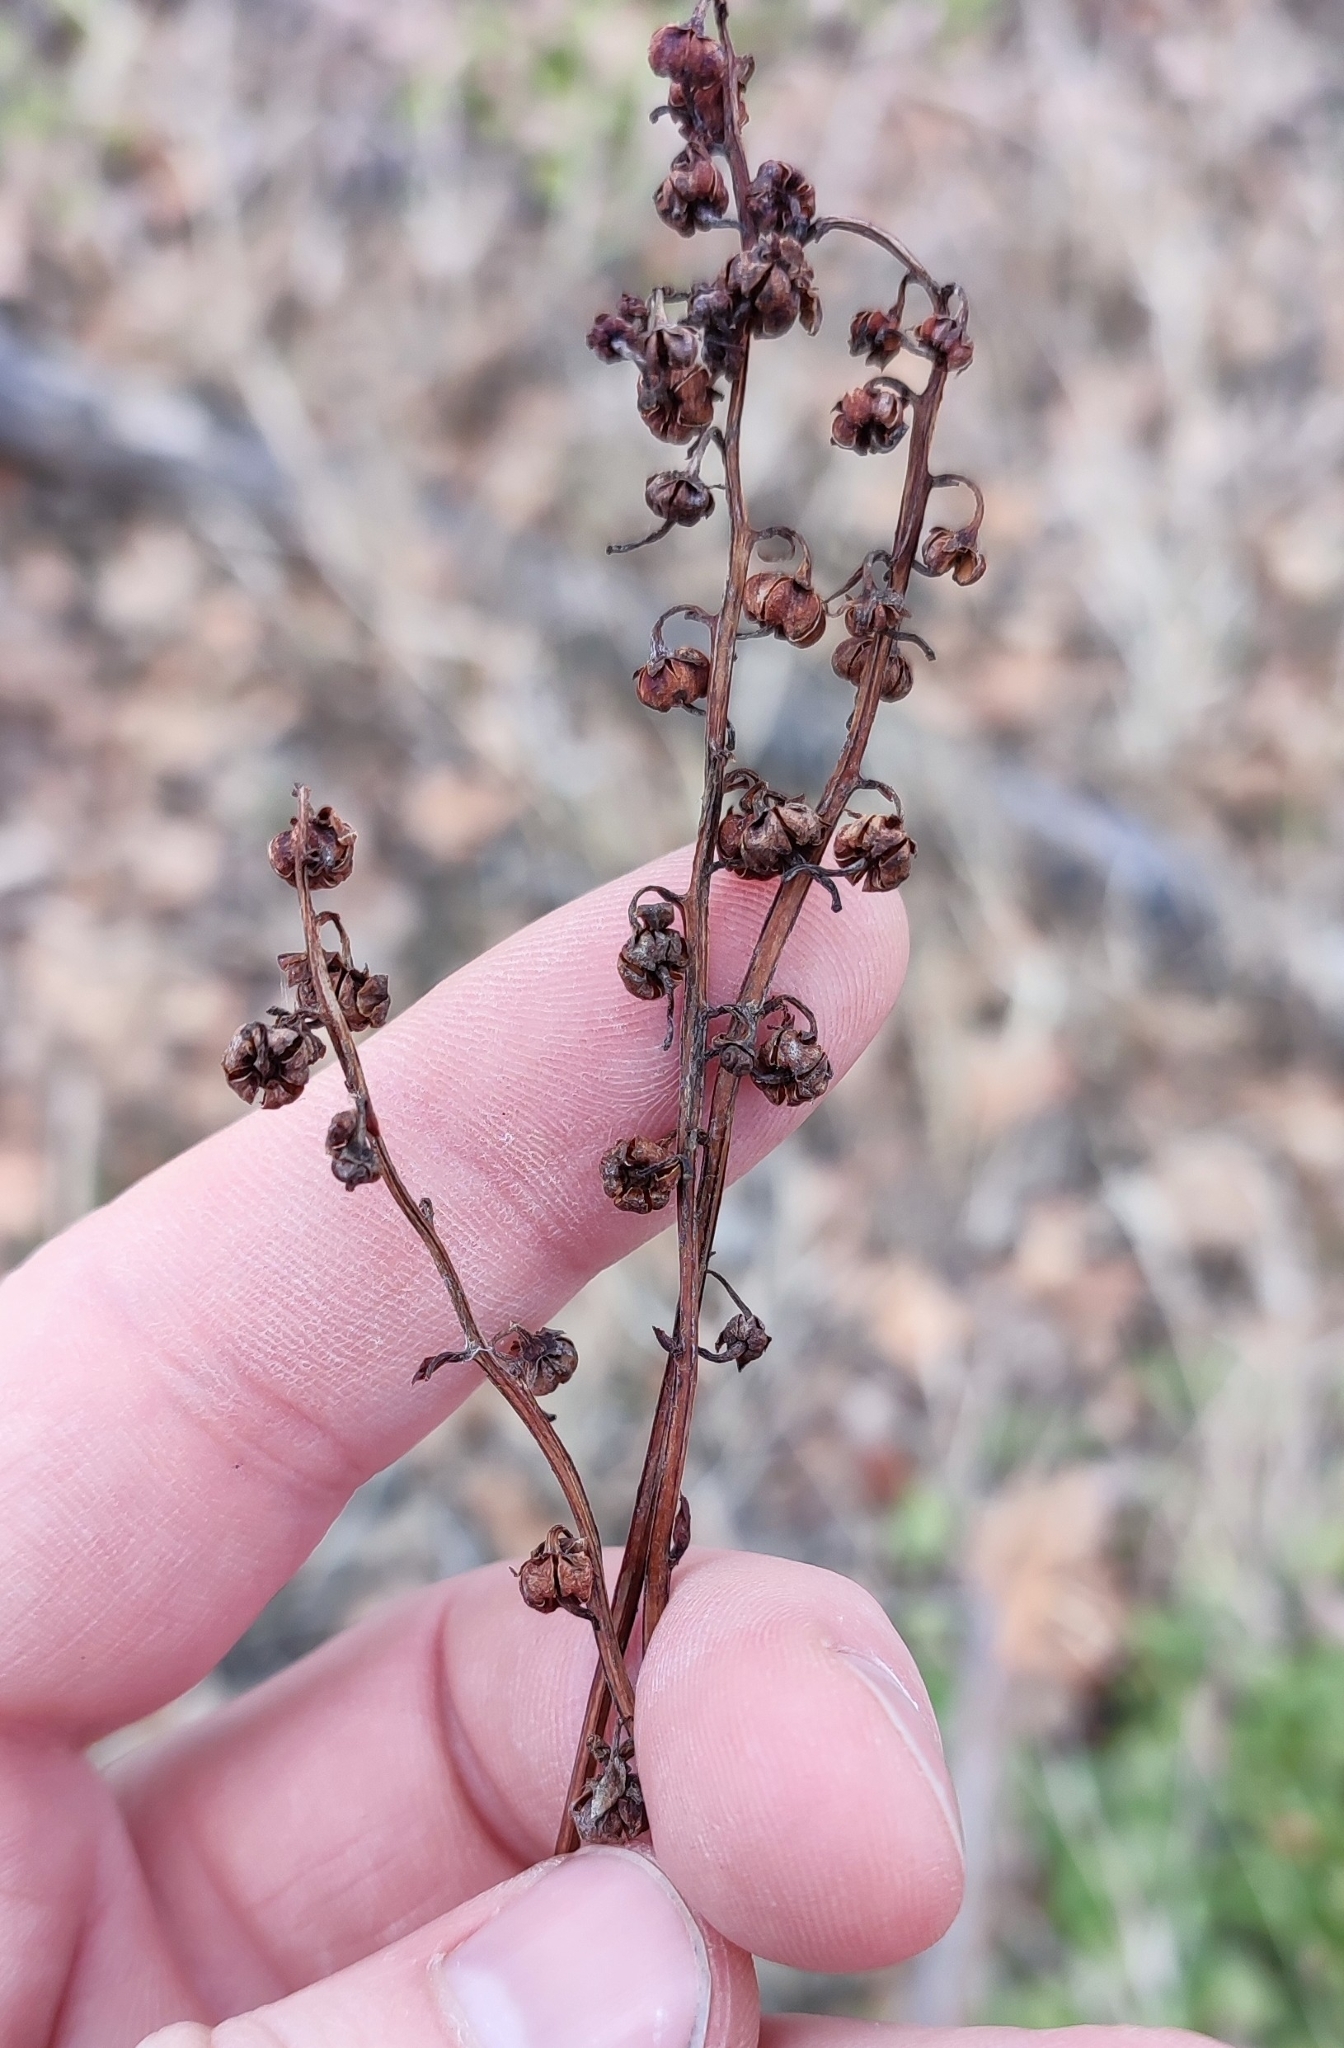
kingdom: Plantae
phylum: Tracheophyta
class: Magnoliopsida
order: Ericales
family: Ericaceae
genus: Pyrola
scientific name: Pyrola rotundifolia
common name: Round-leaved wintergreen
